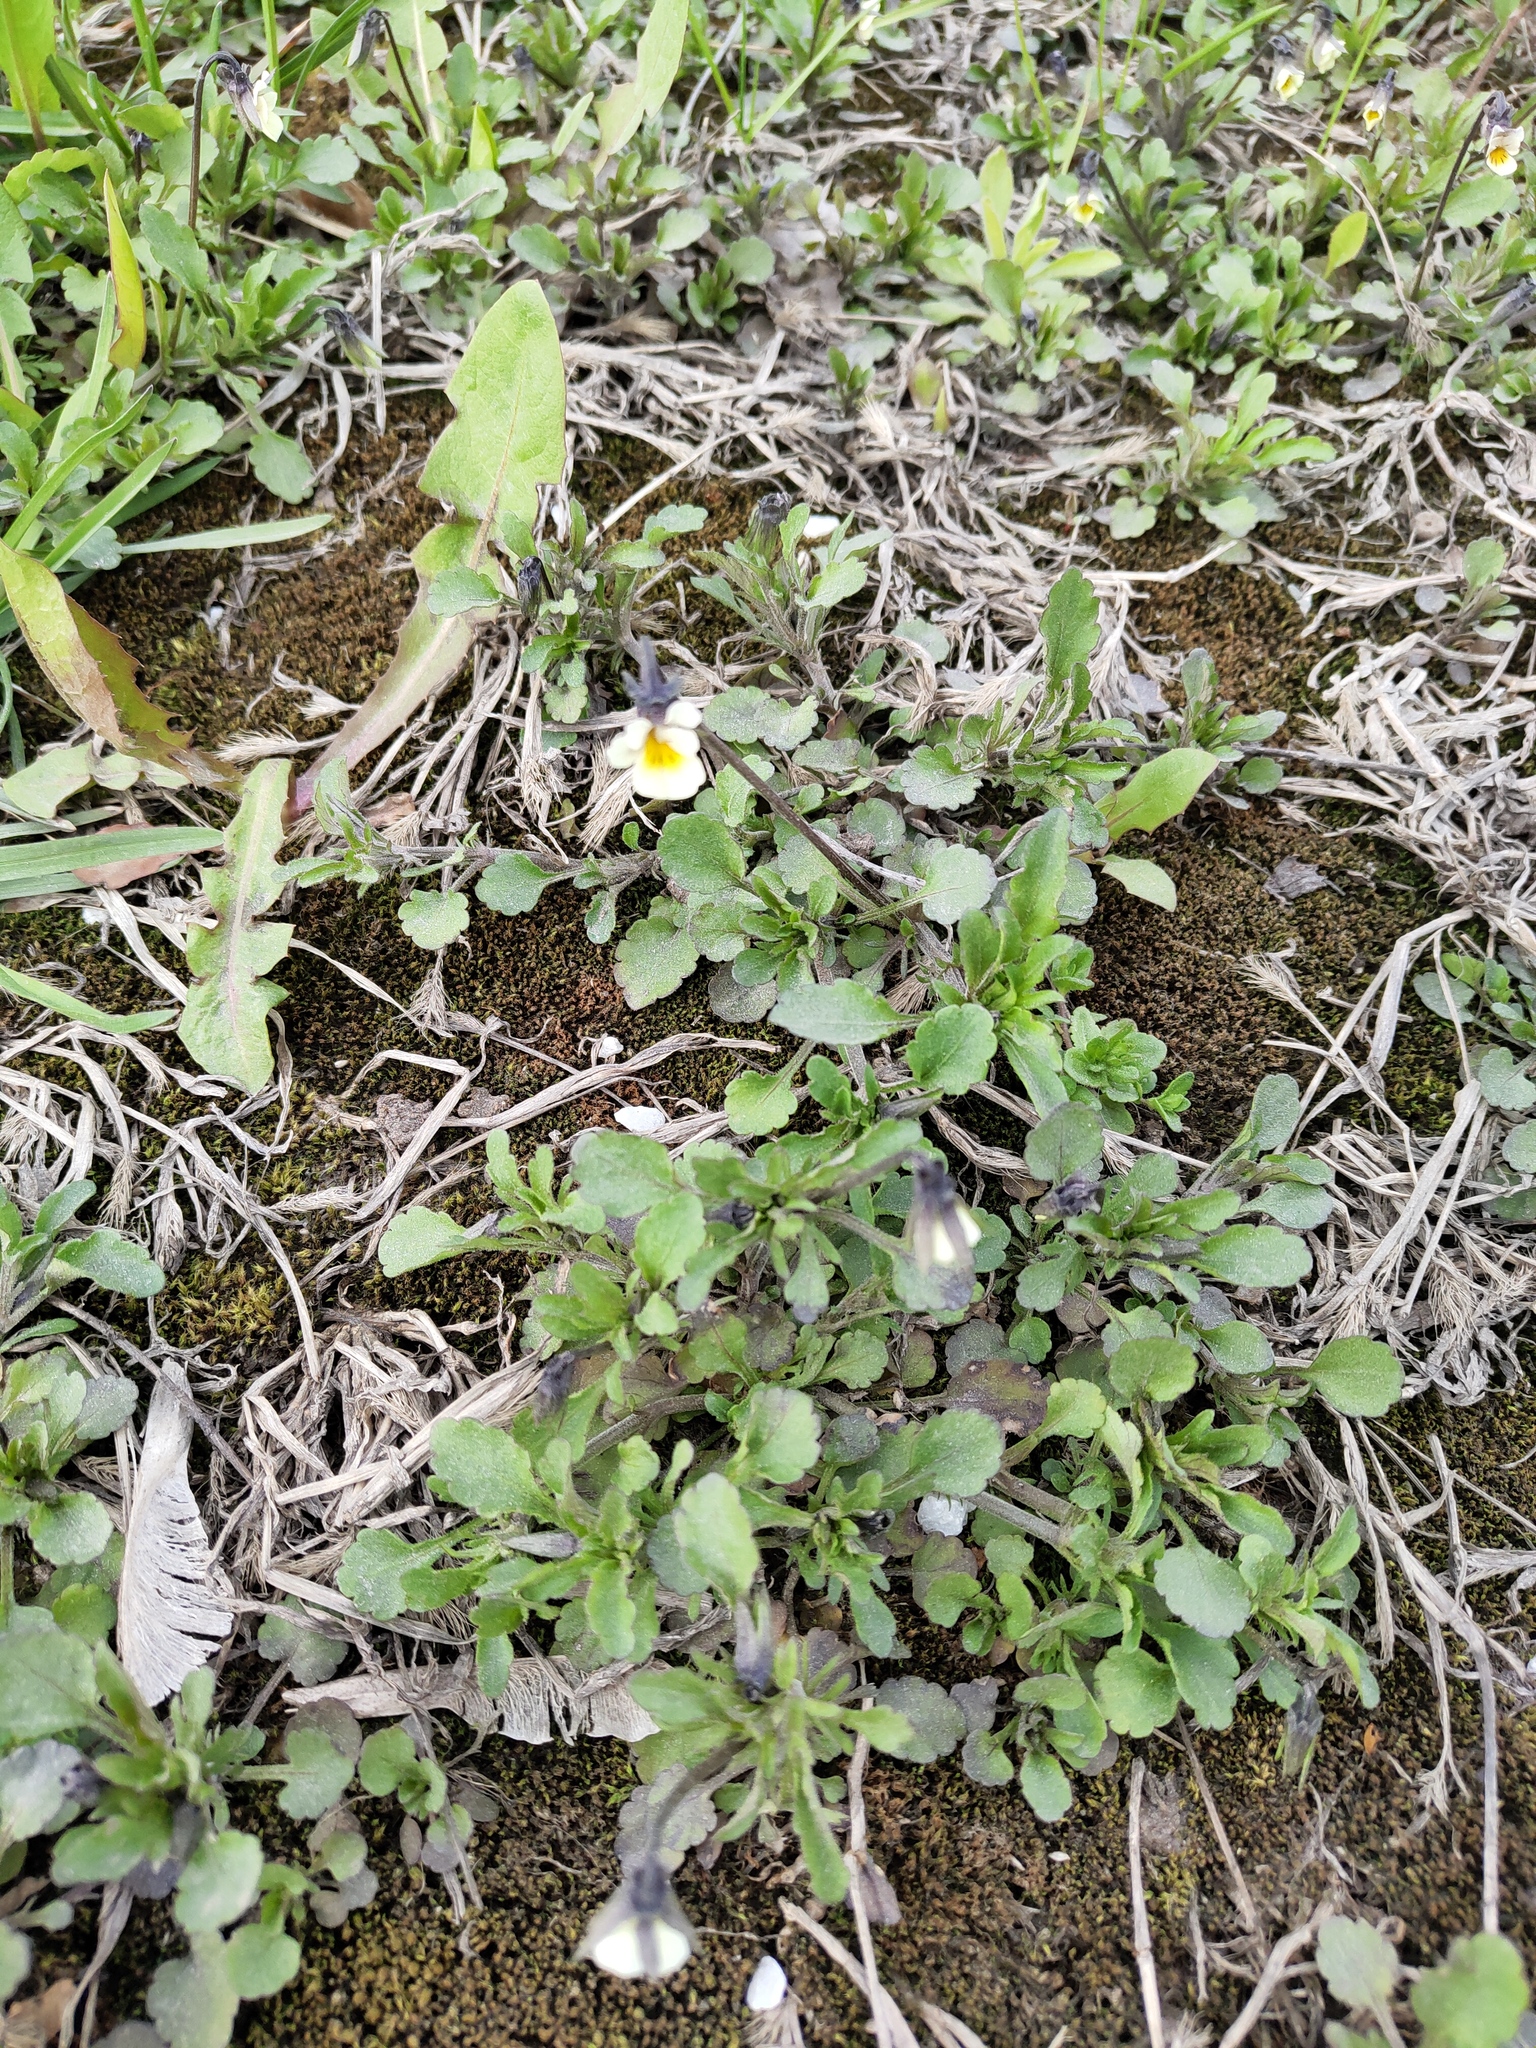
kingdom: Plantae
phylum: Tracheophyta
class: Magnoliopsida
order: Malpighiales
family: Violaceae
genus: Viola
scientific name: Viola arvensis
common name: Field pansy
